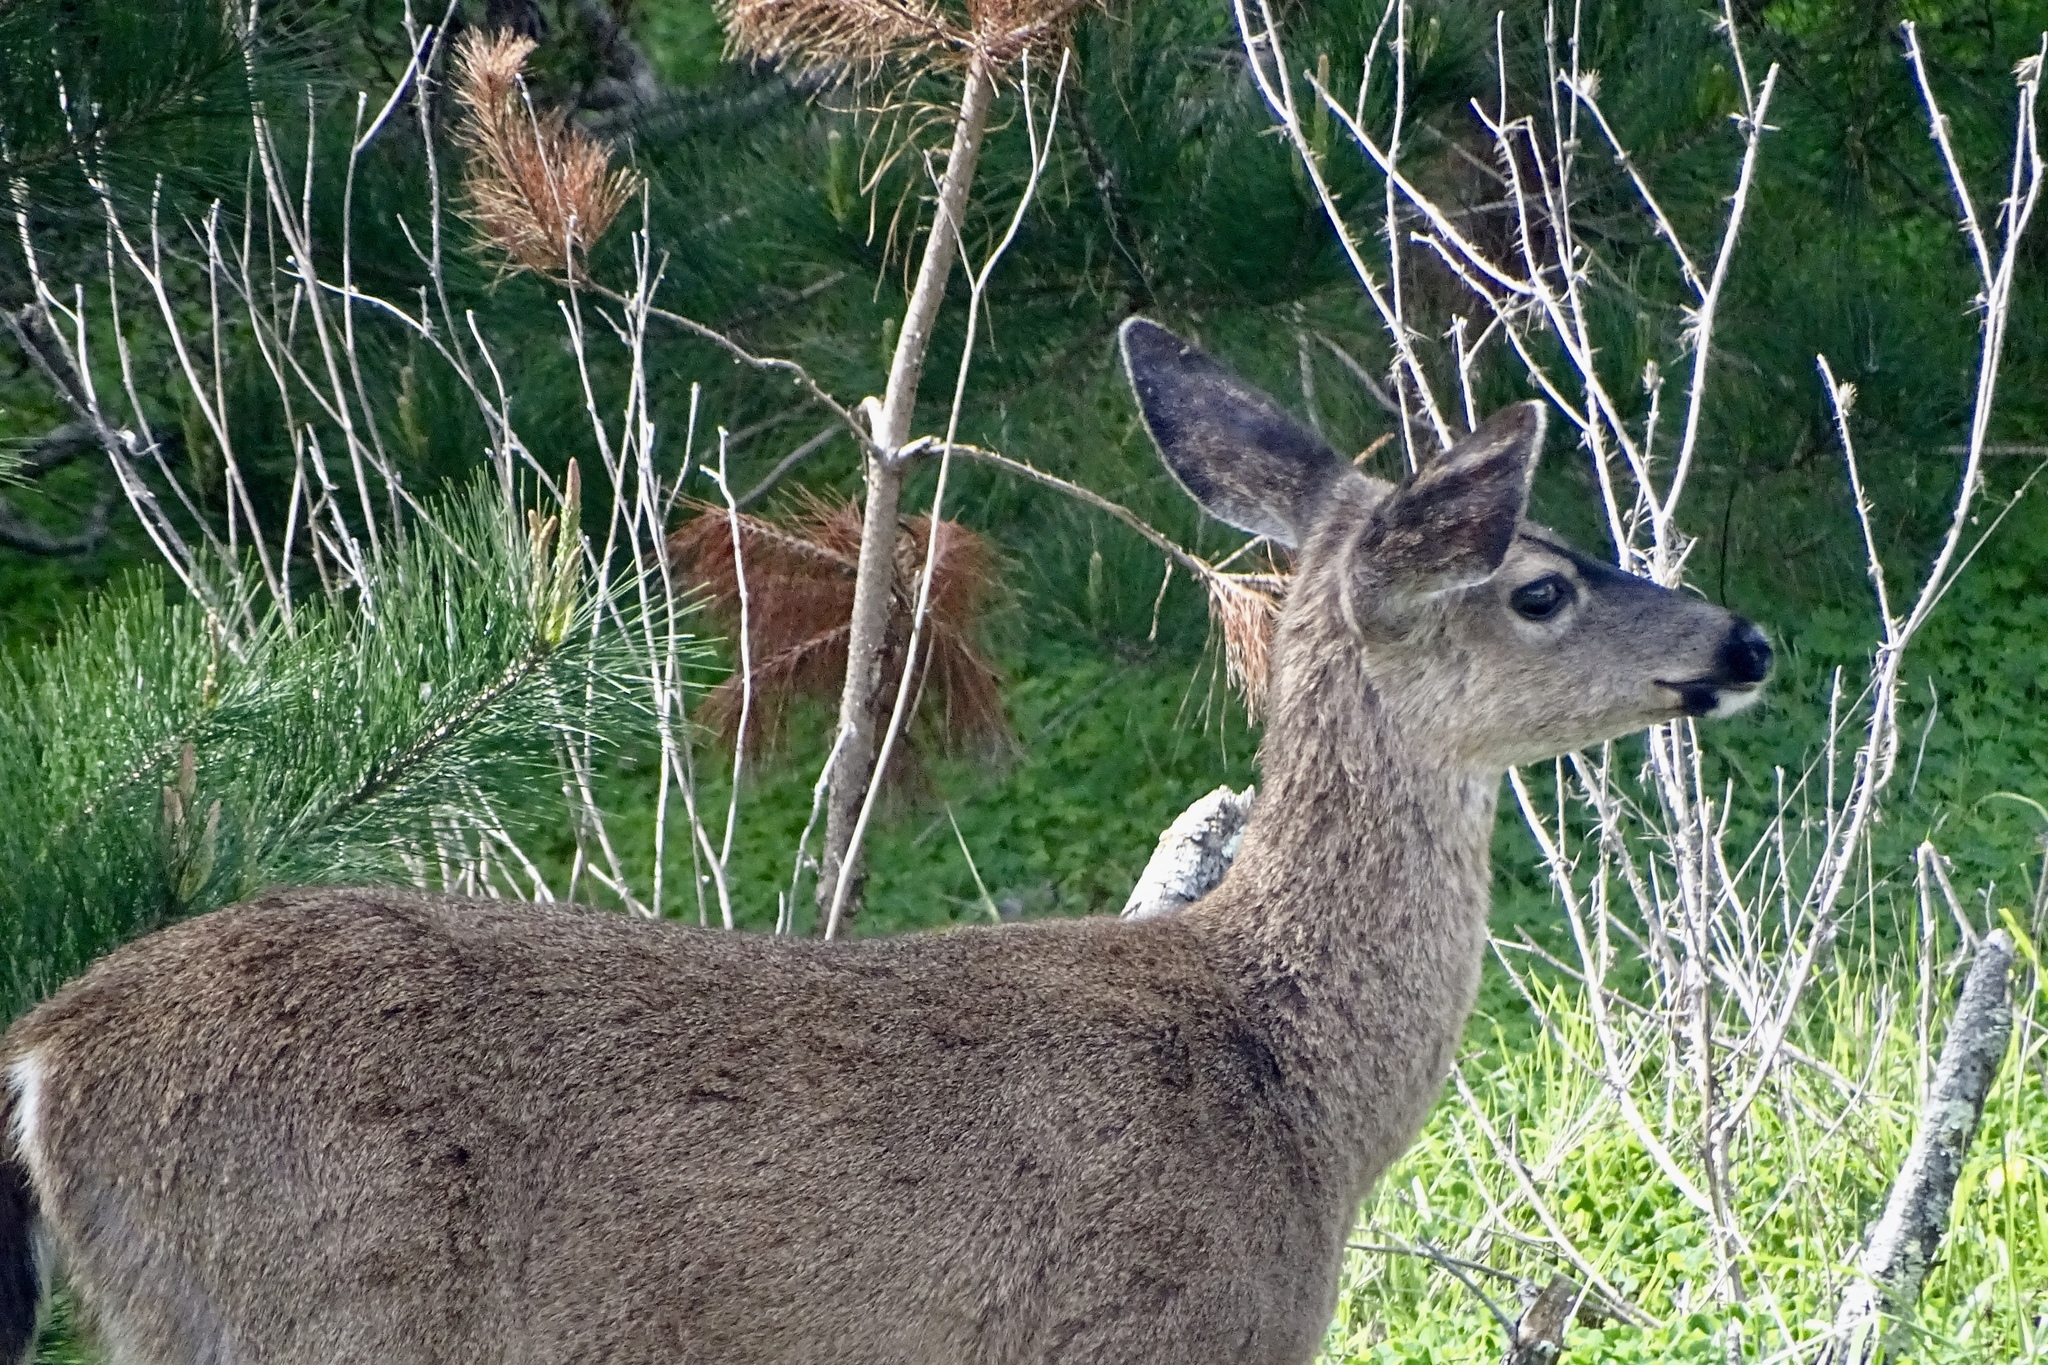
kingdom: Animalia
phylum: Chordata
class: Mammalia
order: Artiodactyla
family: Cervidae
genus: Odocoileus
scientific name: Odocoileus hemionus
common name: Mule deer
